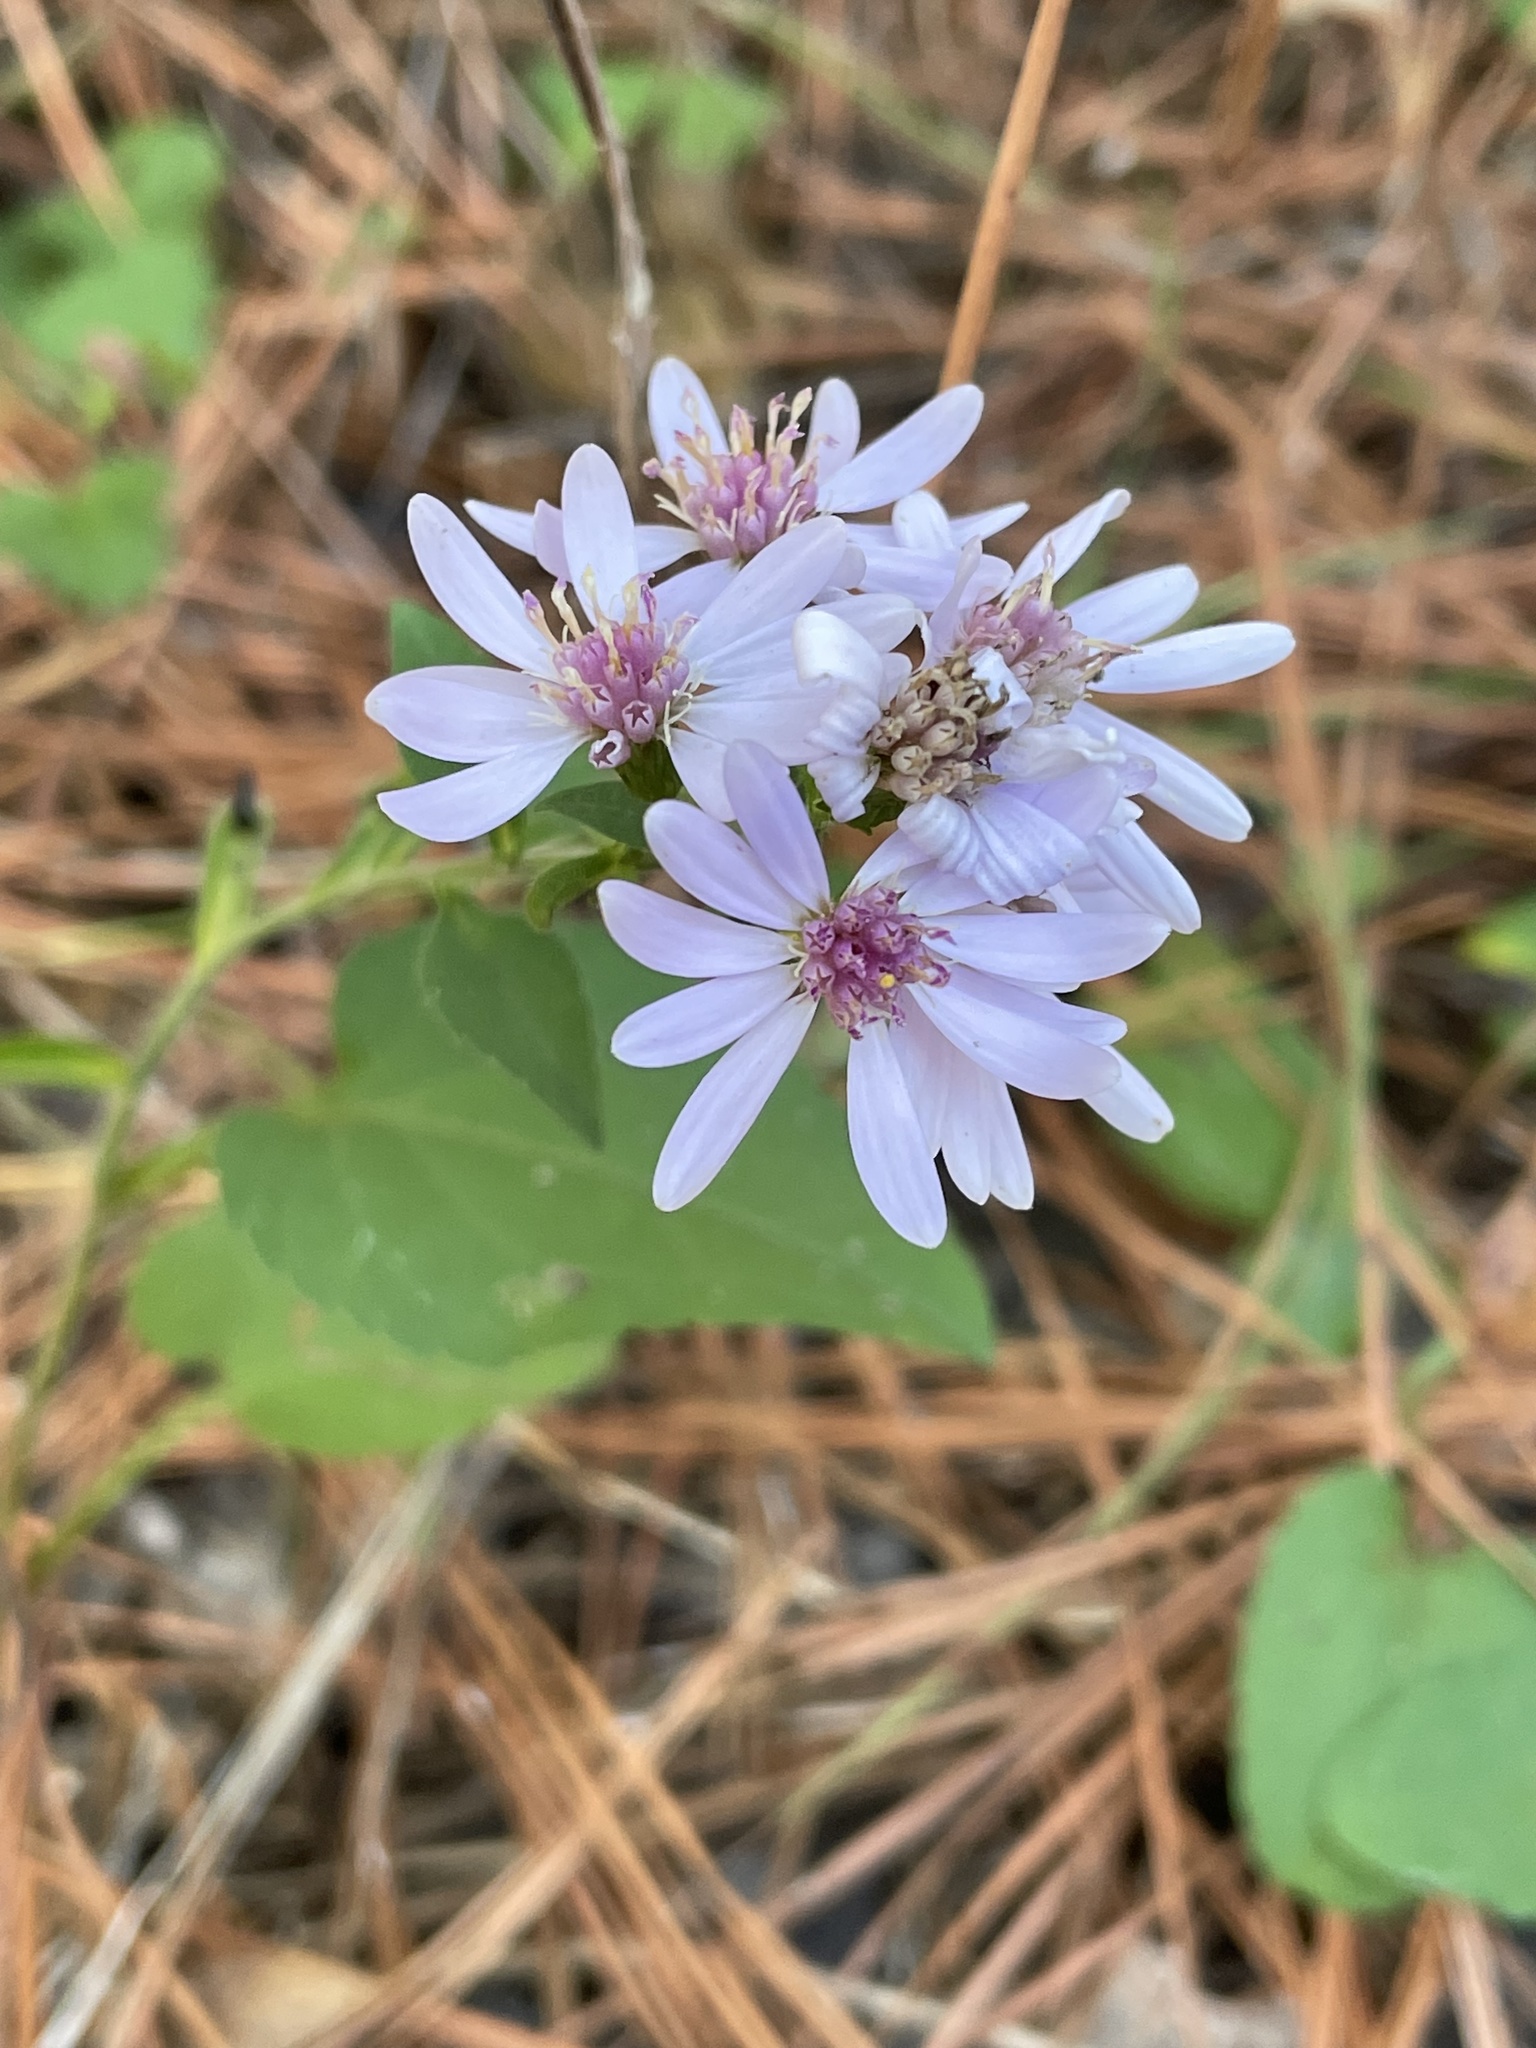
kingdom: Plantae
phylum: Tracheophyta
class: Magnoliopsida
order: Asterales
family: Asteraceae
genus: Symphyotrichum
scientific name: Symphyotrichum drummondii
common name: Drummond's aster
